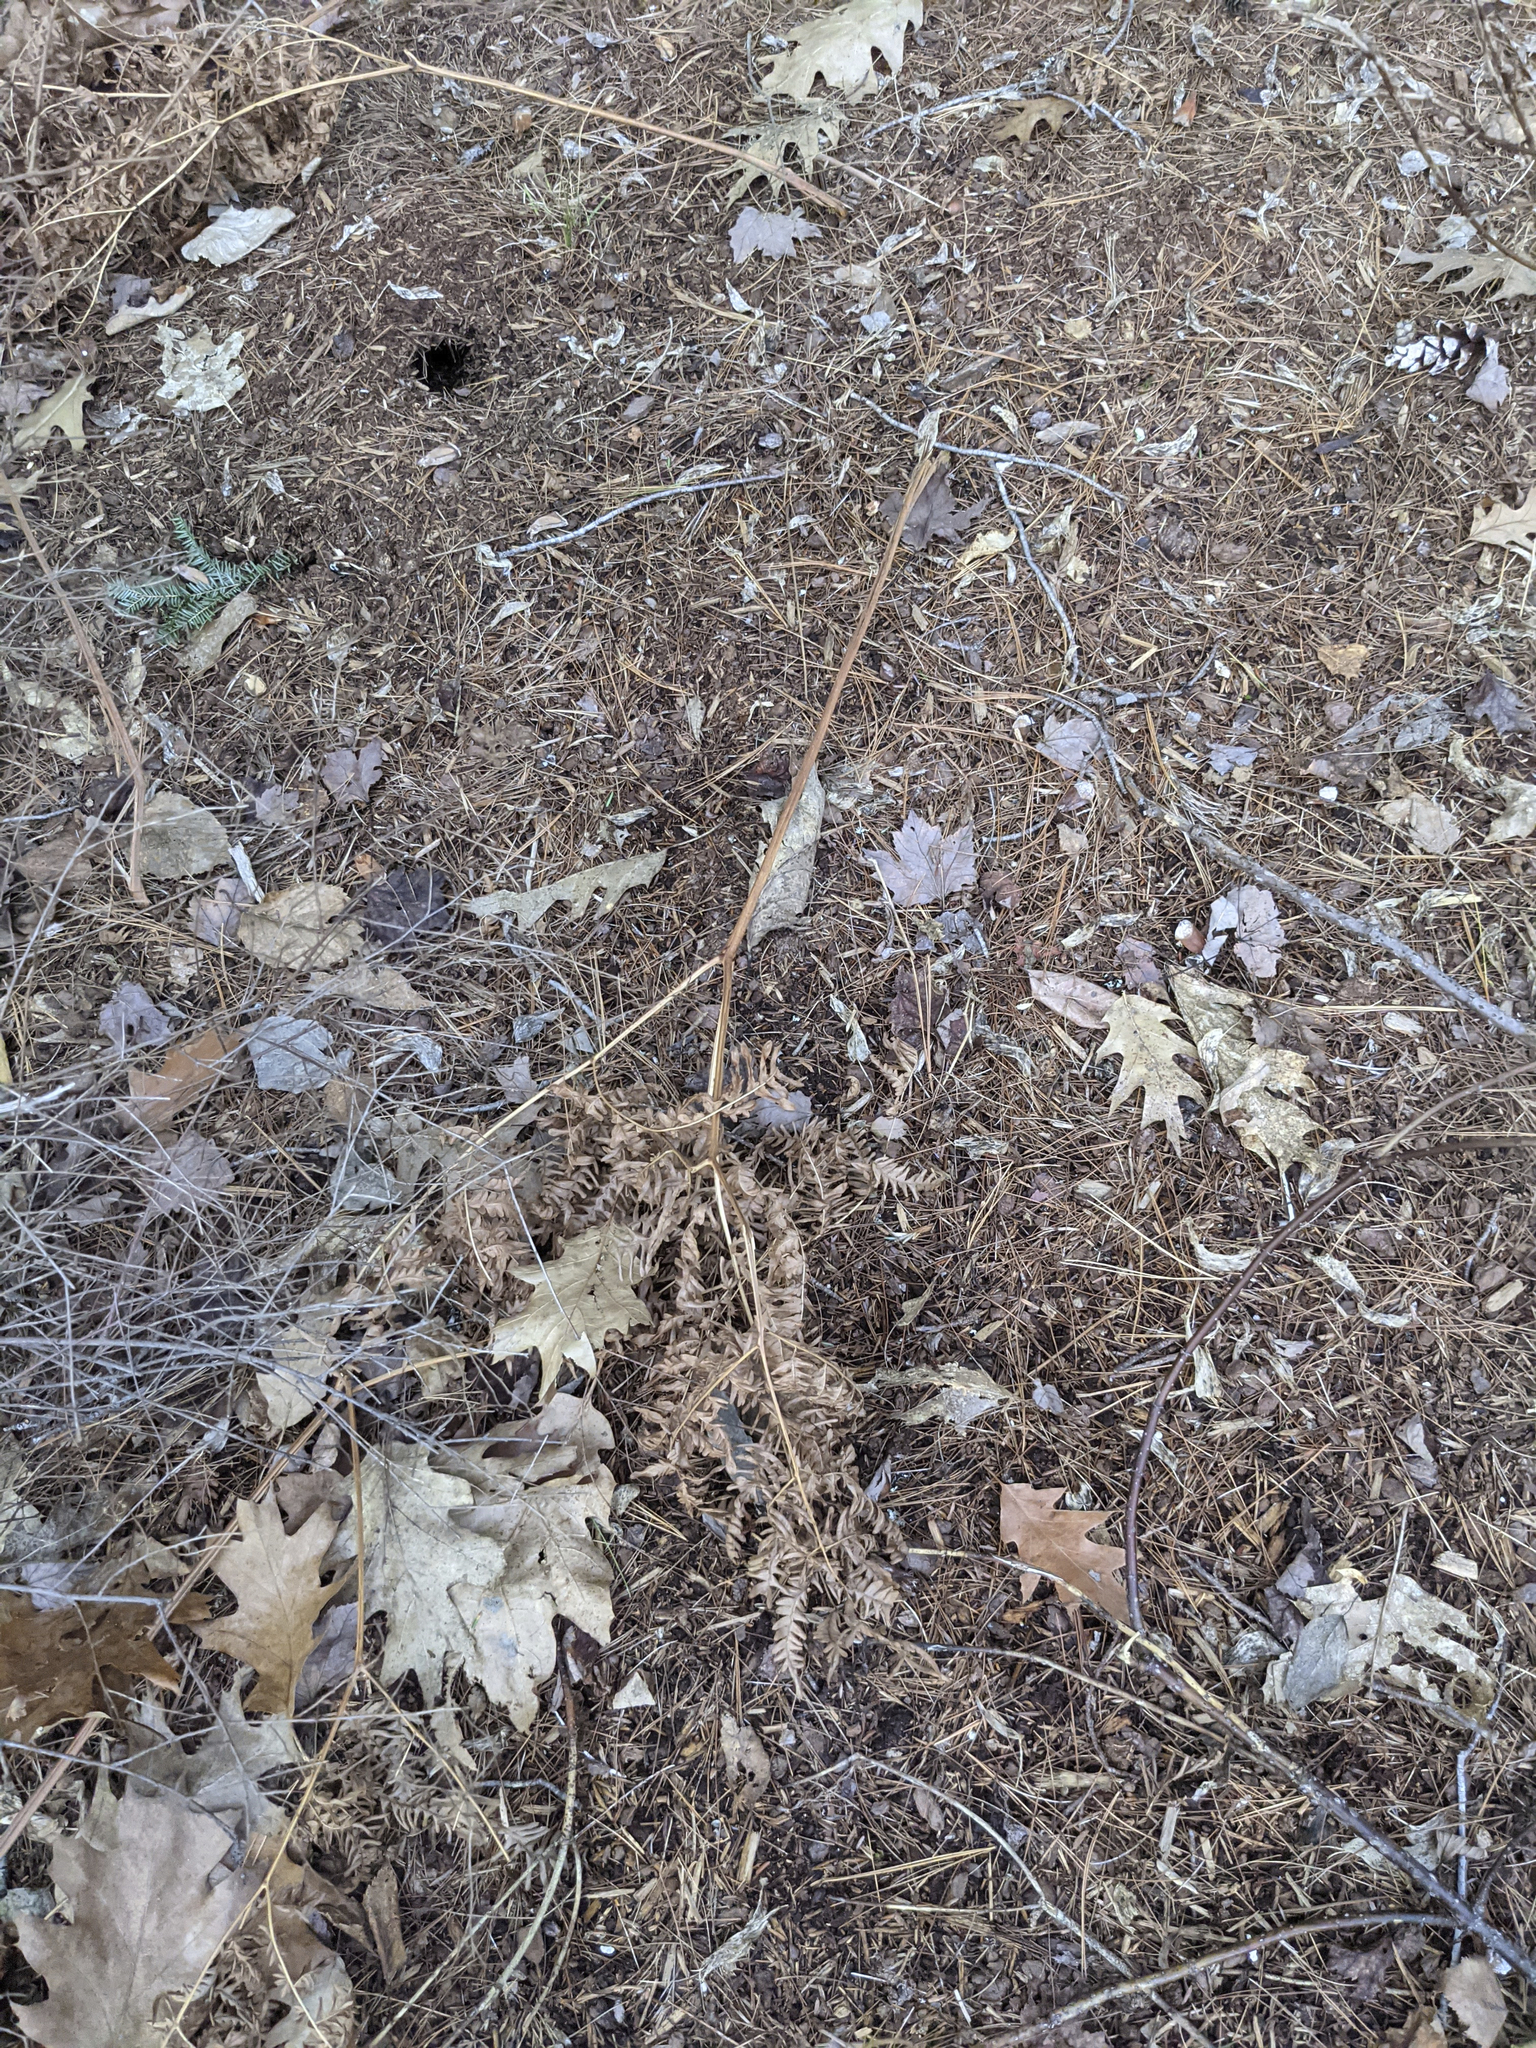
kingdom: Plantae
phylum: Tracheophyta
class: Polypodiopsida
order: Polypodiales
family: Dennstaedtiaceae
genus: Pteridium
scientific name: Pteridium aquilinum
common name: Bracken
